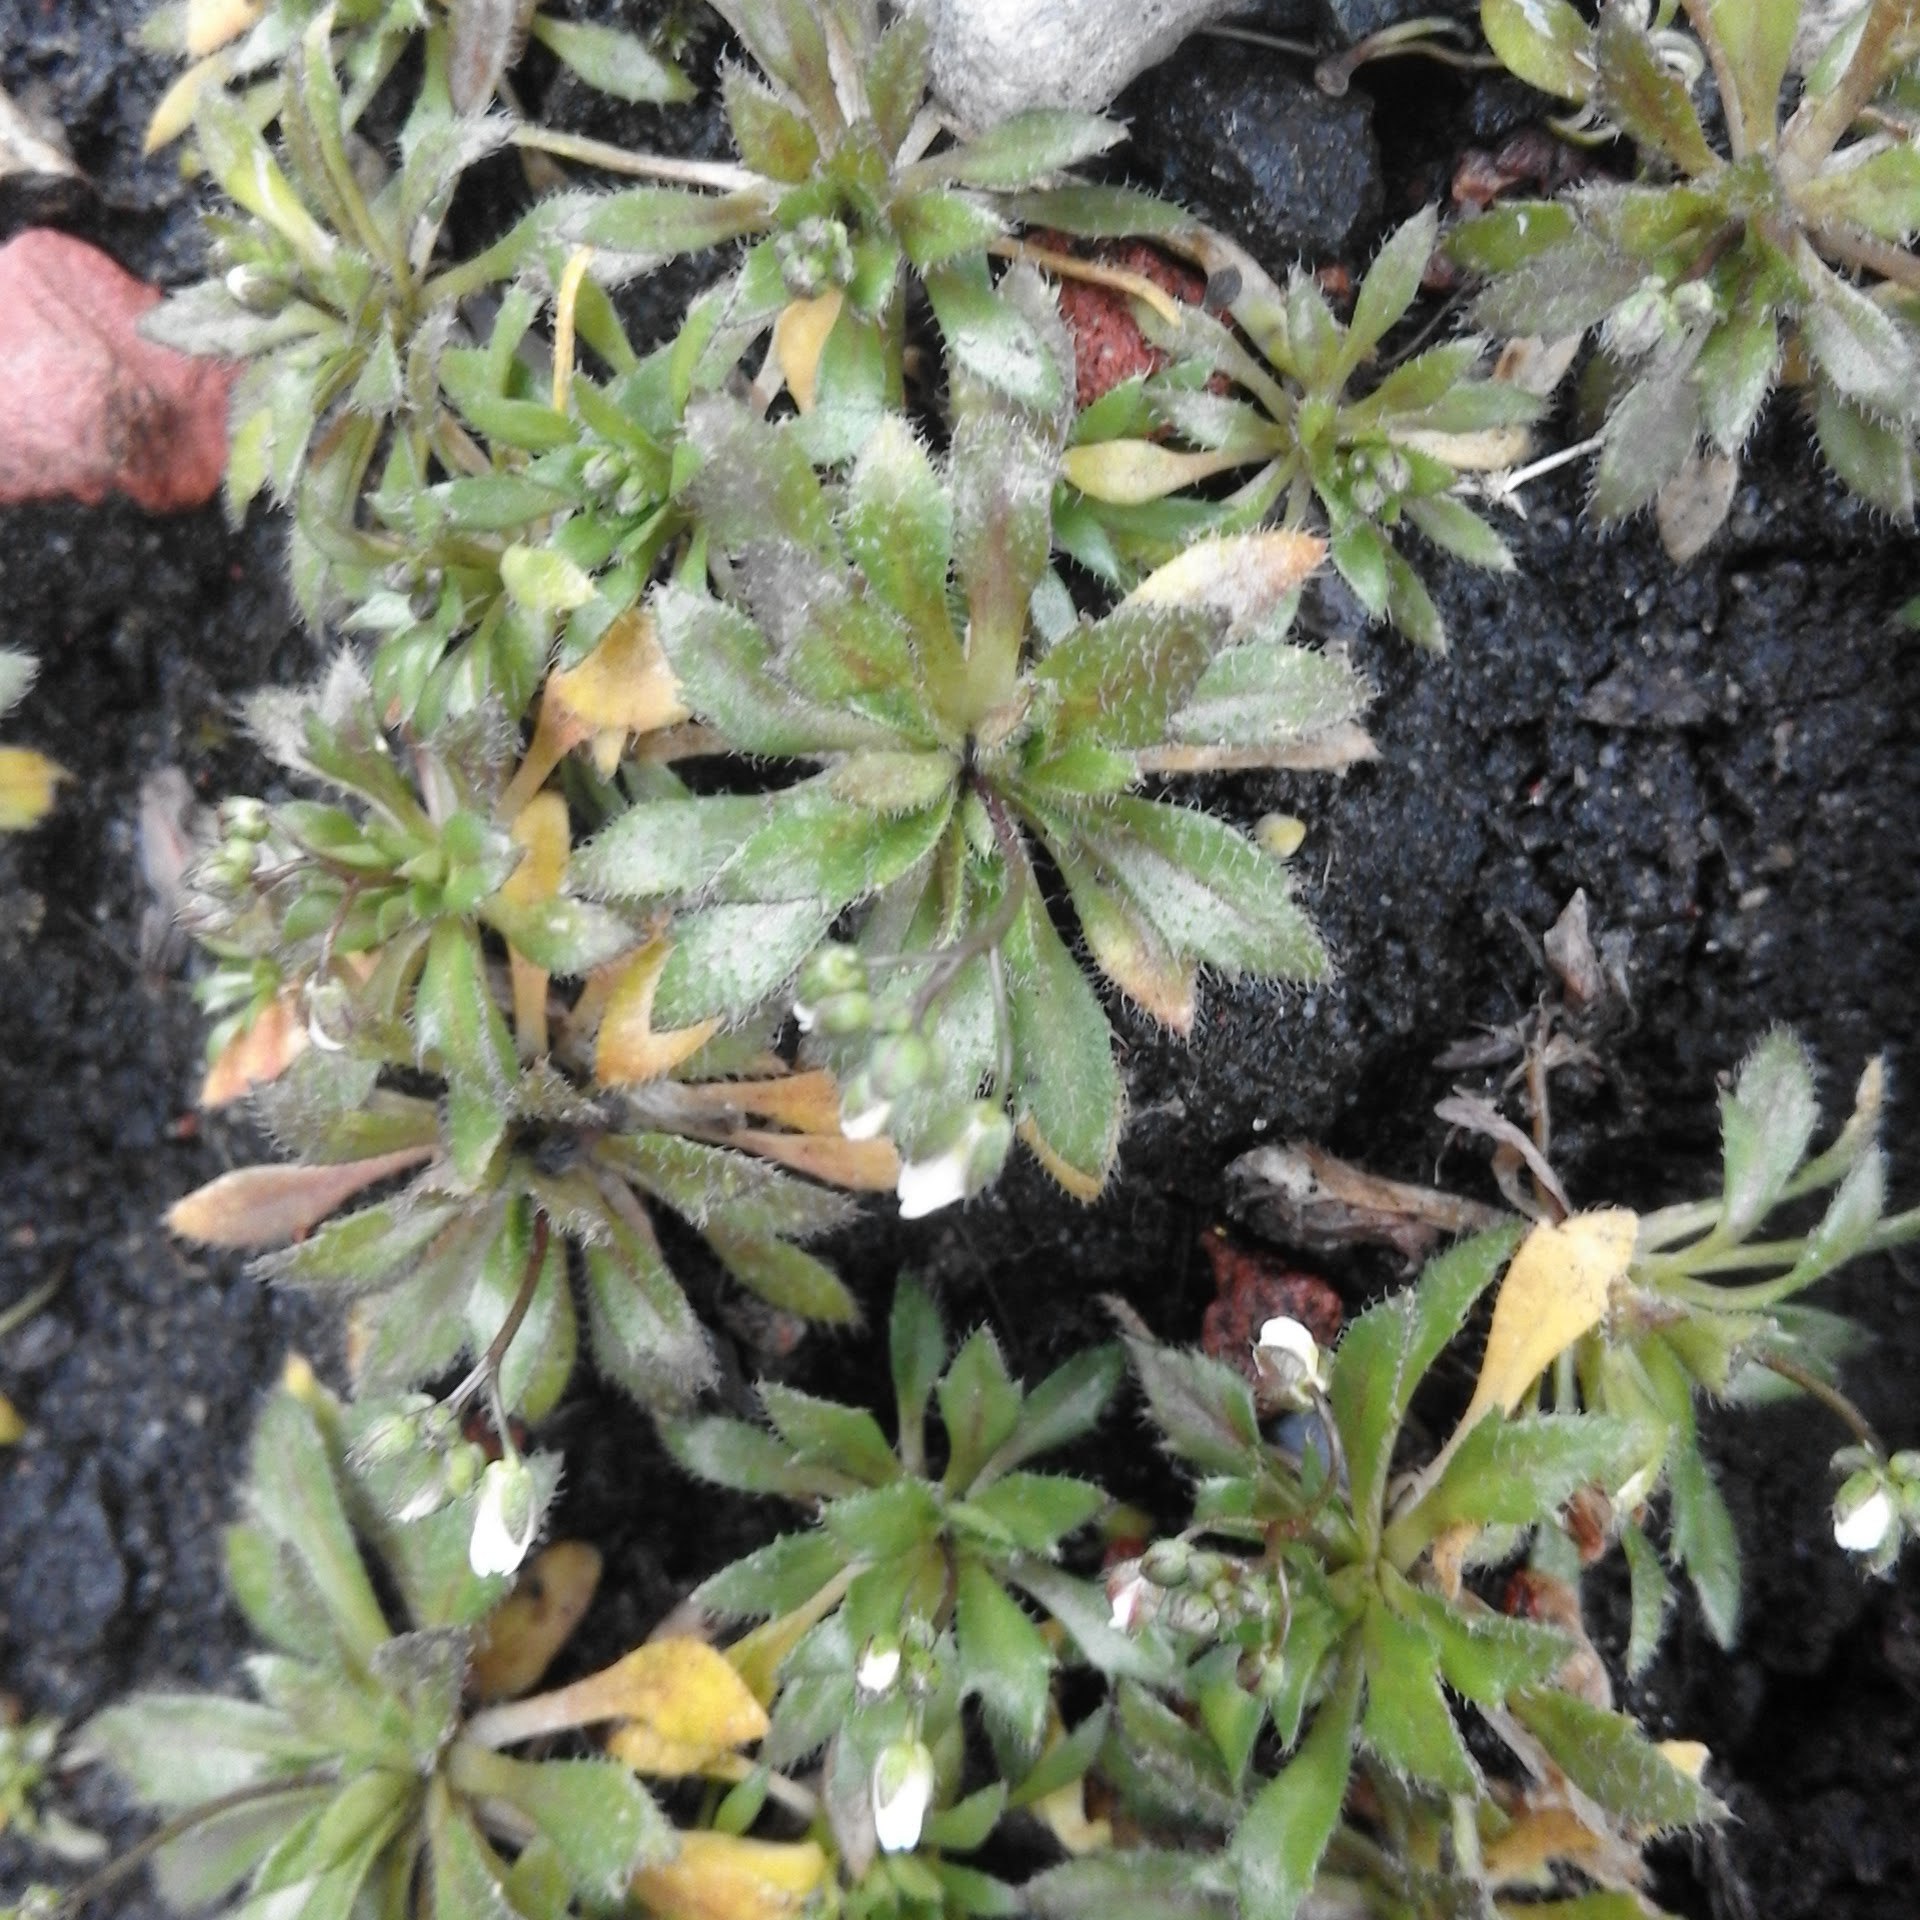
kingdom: Plantae
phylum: Tracheophyta
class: Magnoliopsida
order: Brassicales
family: Brassicaceae
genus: Draba
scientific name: Draba verna
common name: Spring draba
